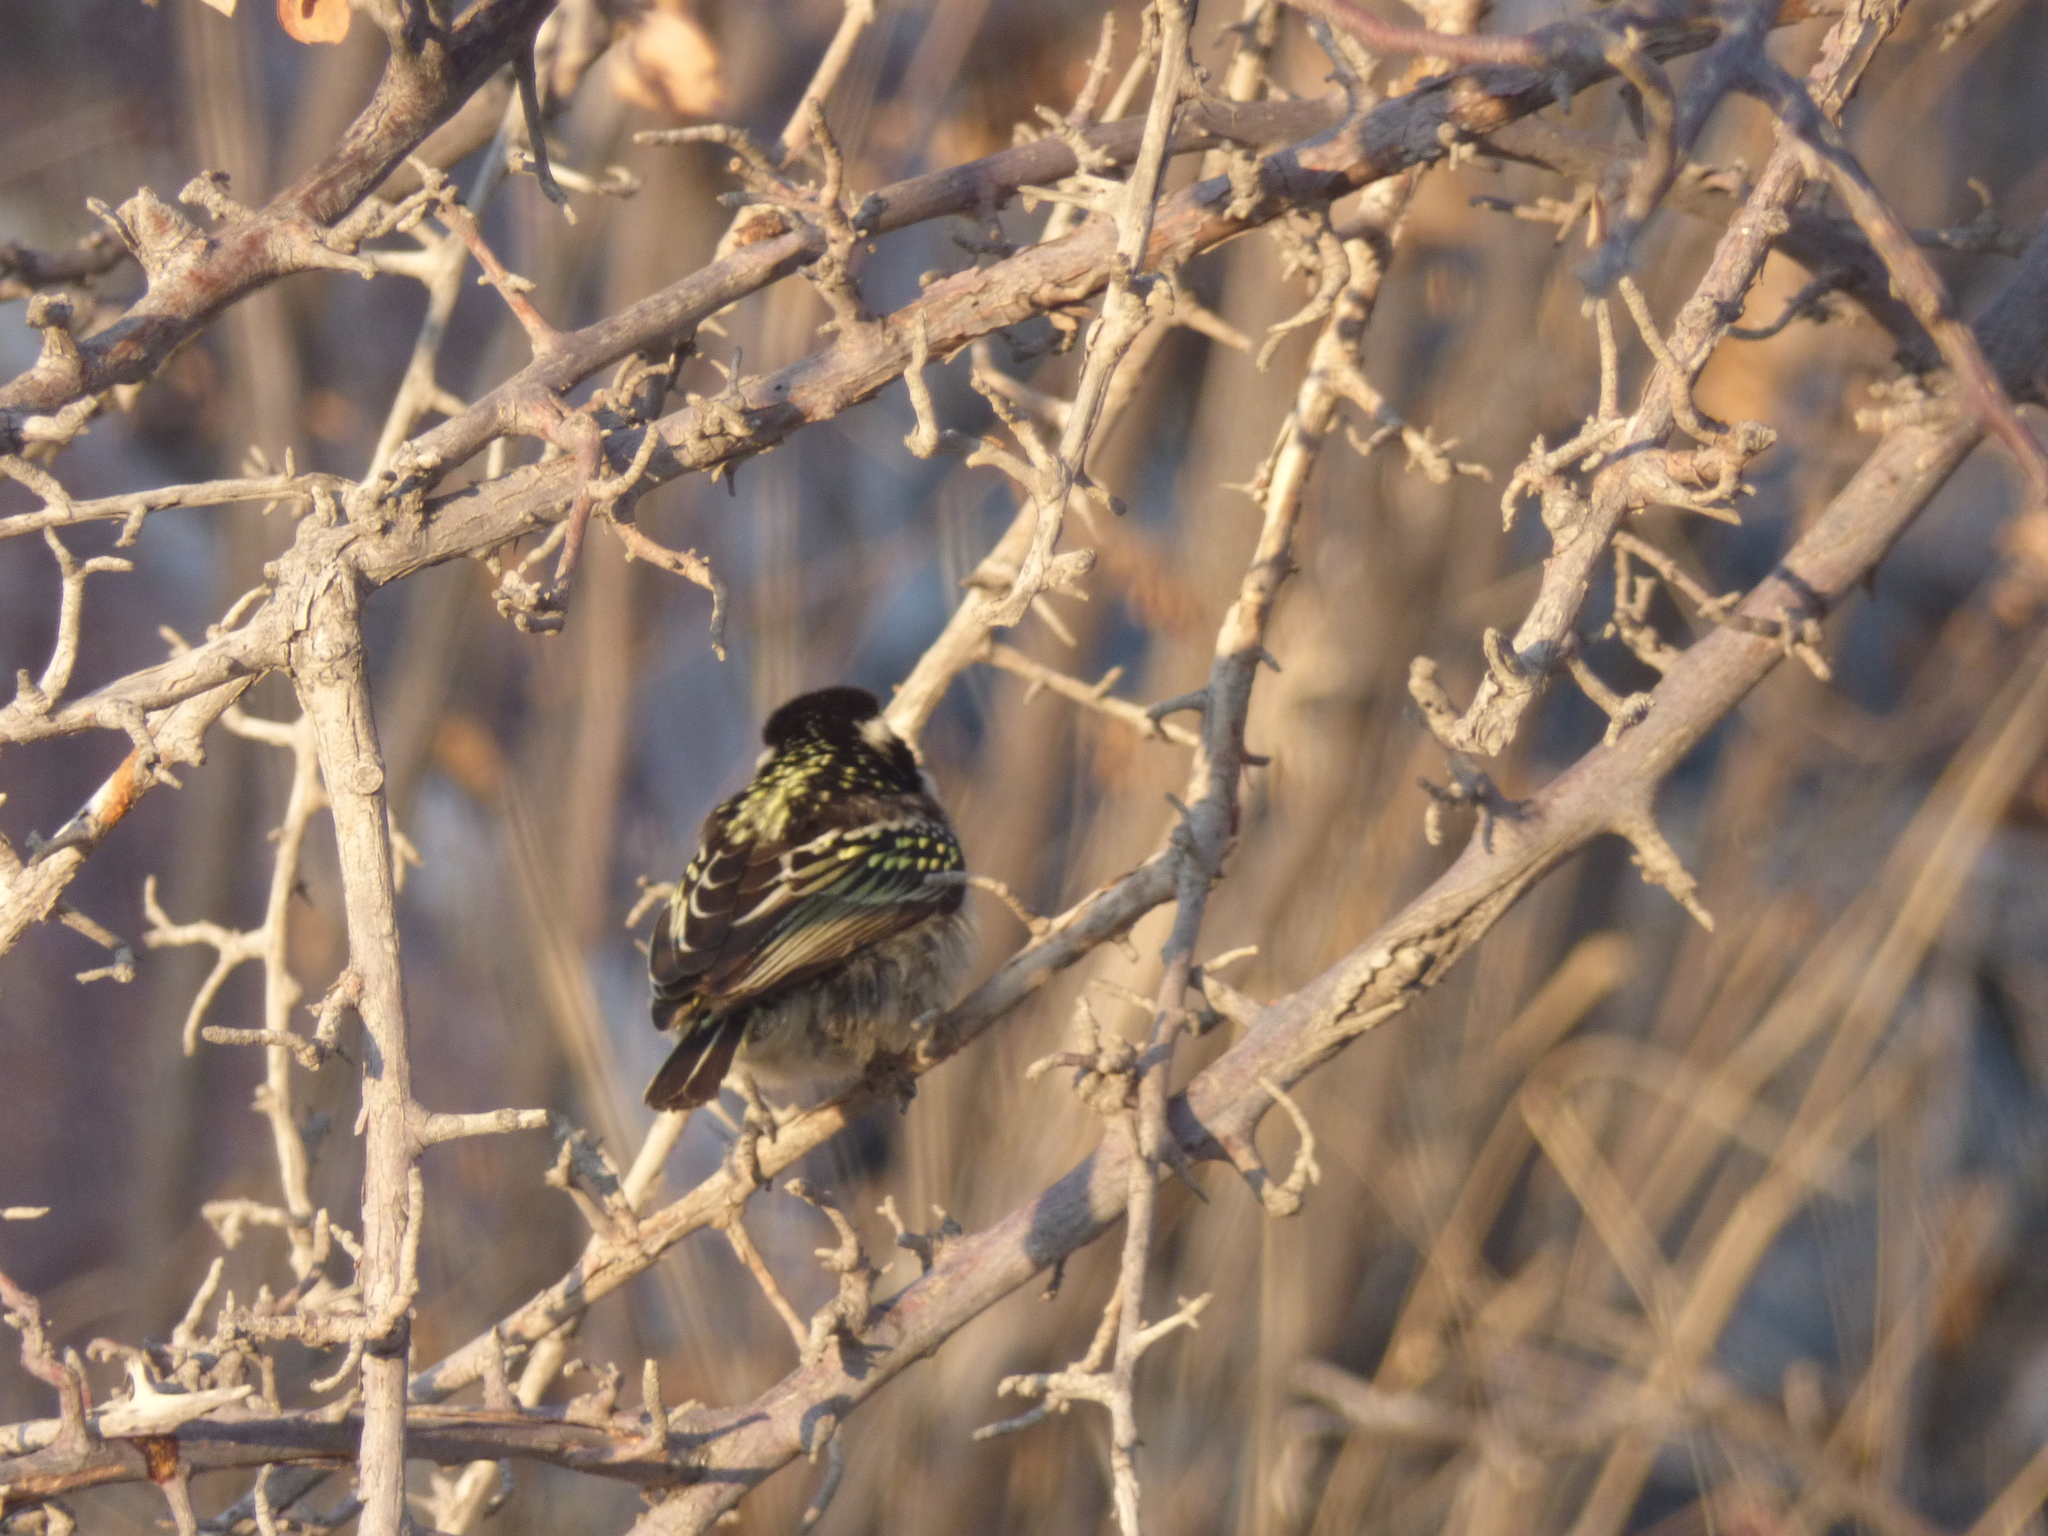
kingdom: Animalia
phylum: Chordata
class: Aves
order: Piciformes
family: Lybiidae
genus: Tricholaema
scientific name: Tricholaema leucomelas
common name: Acacia pied barbet
